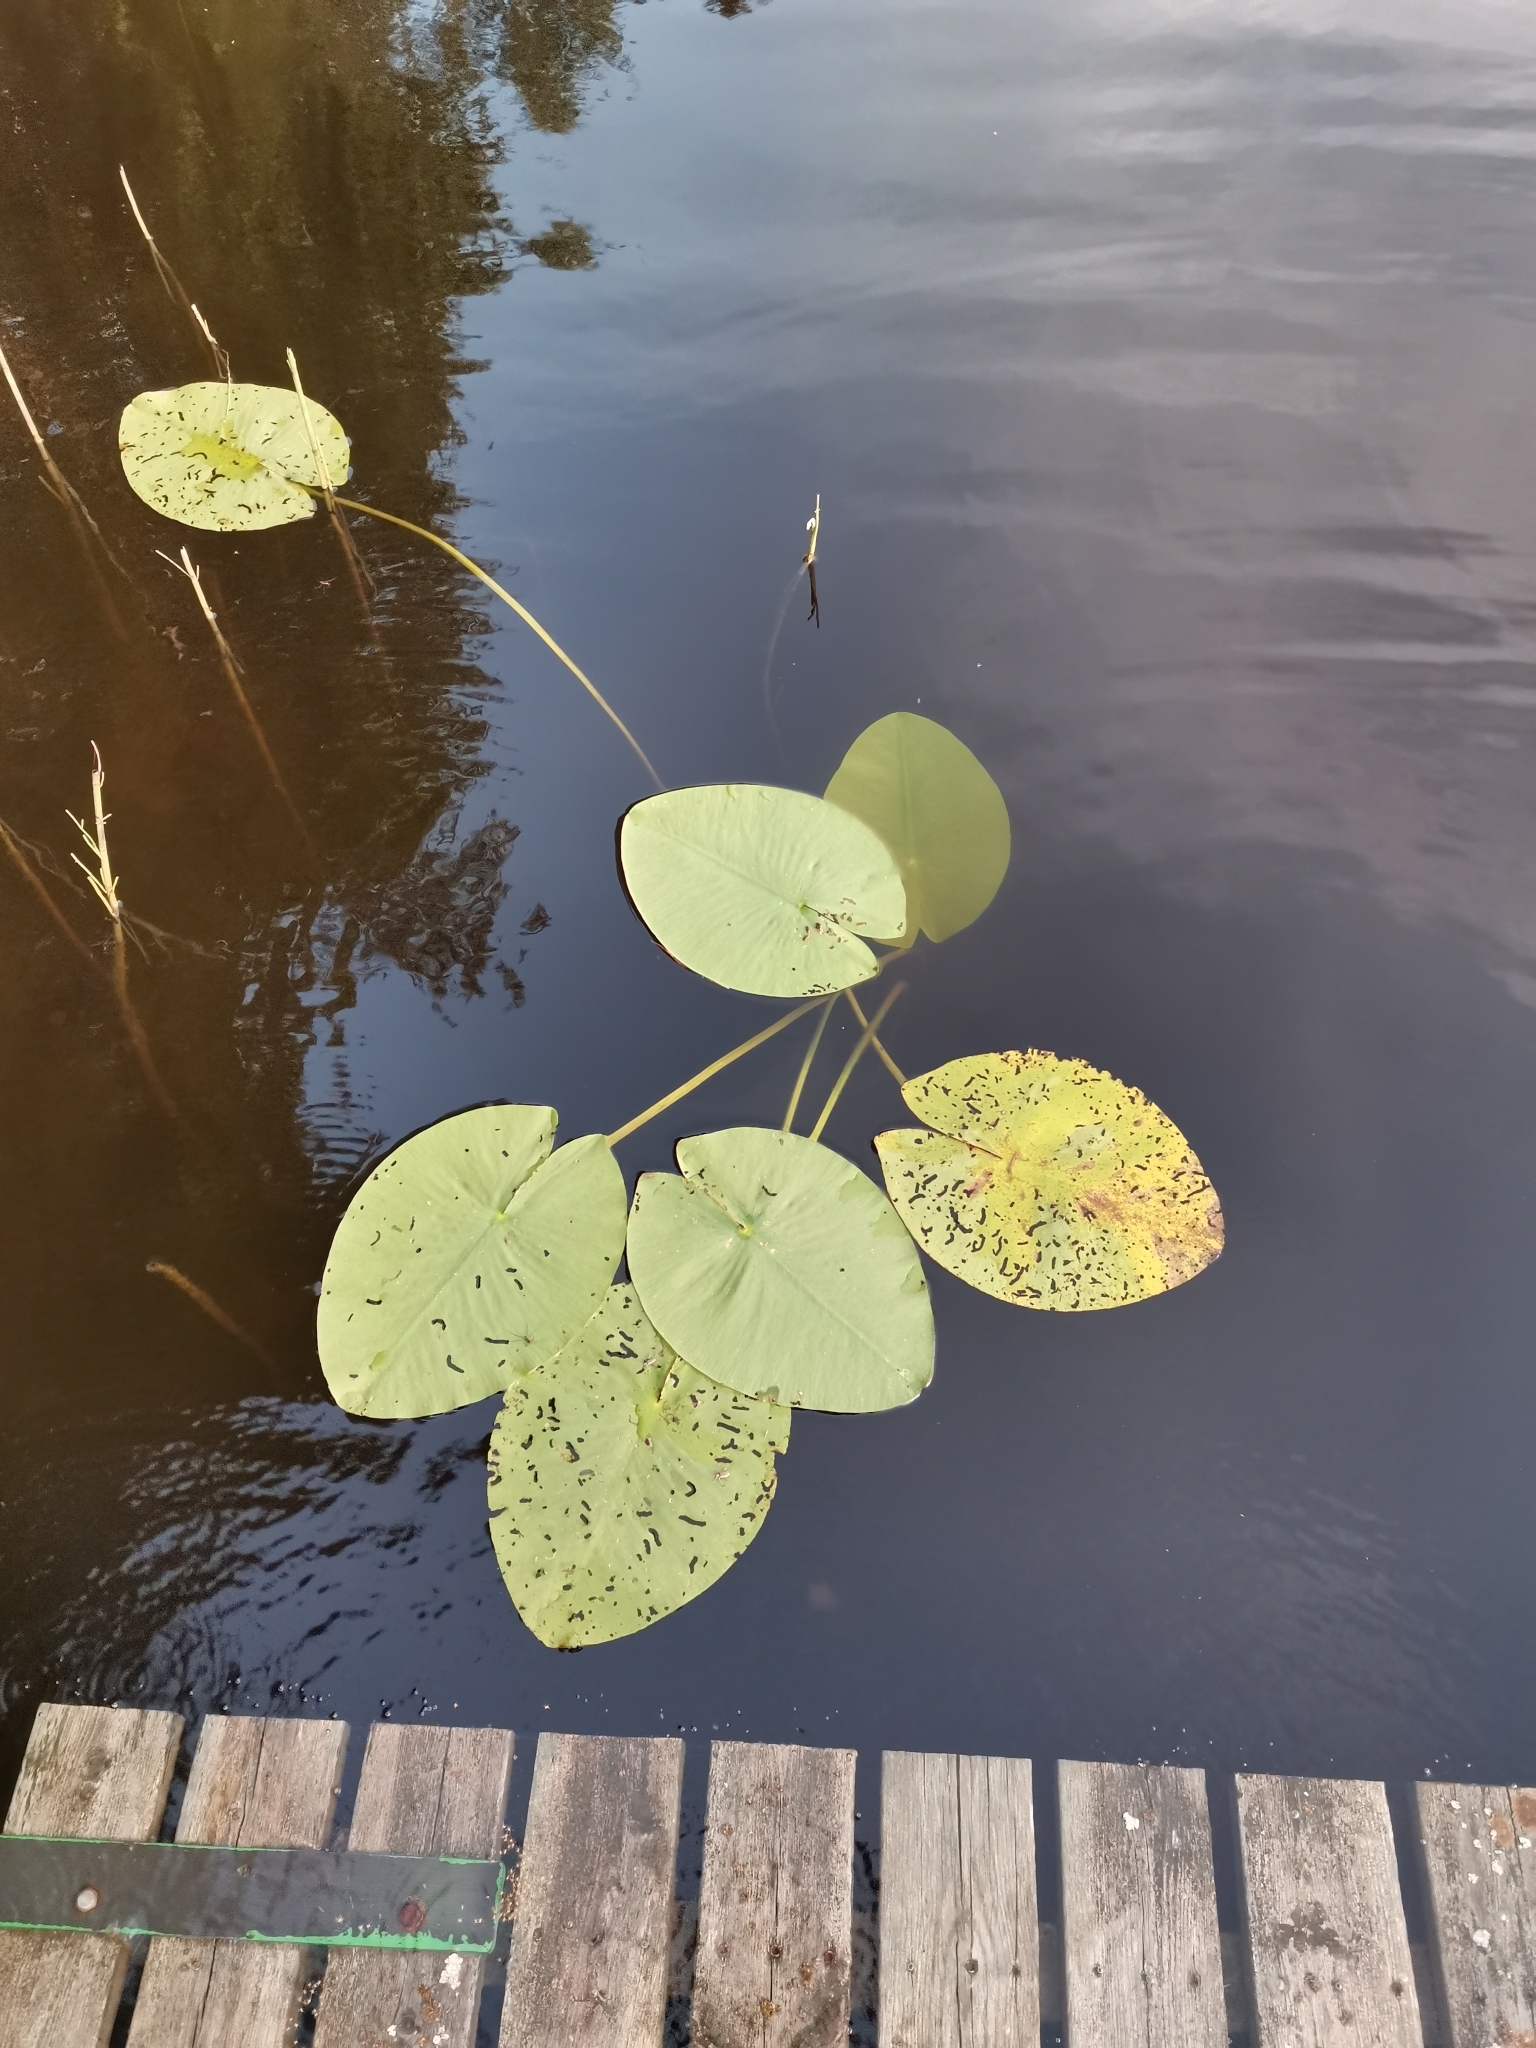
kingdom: Plantae
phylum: Tracheophyta
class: Magnoliopsida
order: Nymphaeales
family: Nymphaeaceae
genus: Nuphar
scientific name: Nuphar lutea
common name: Yellow water-lily
